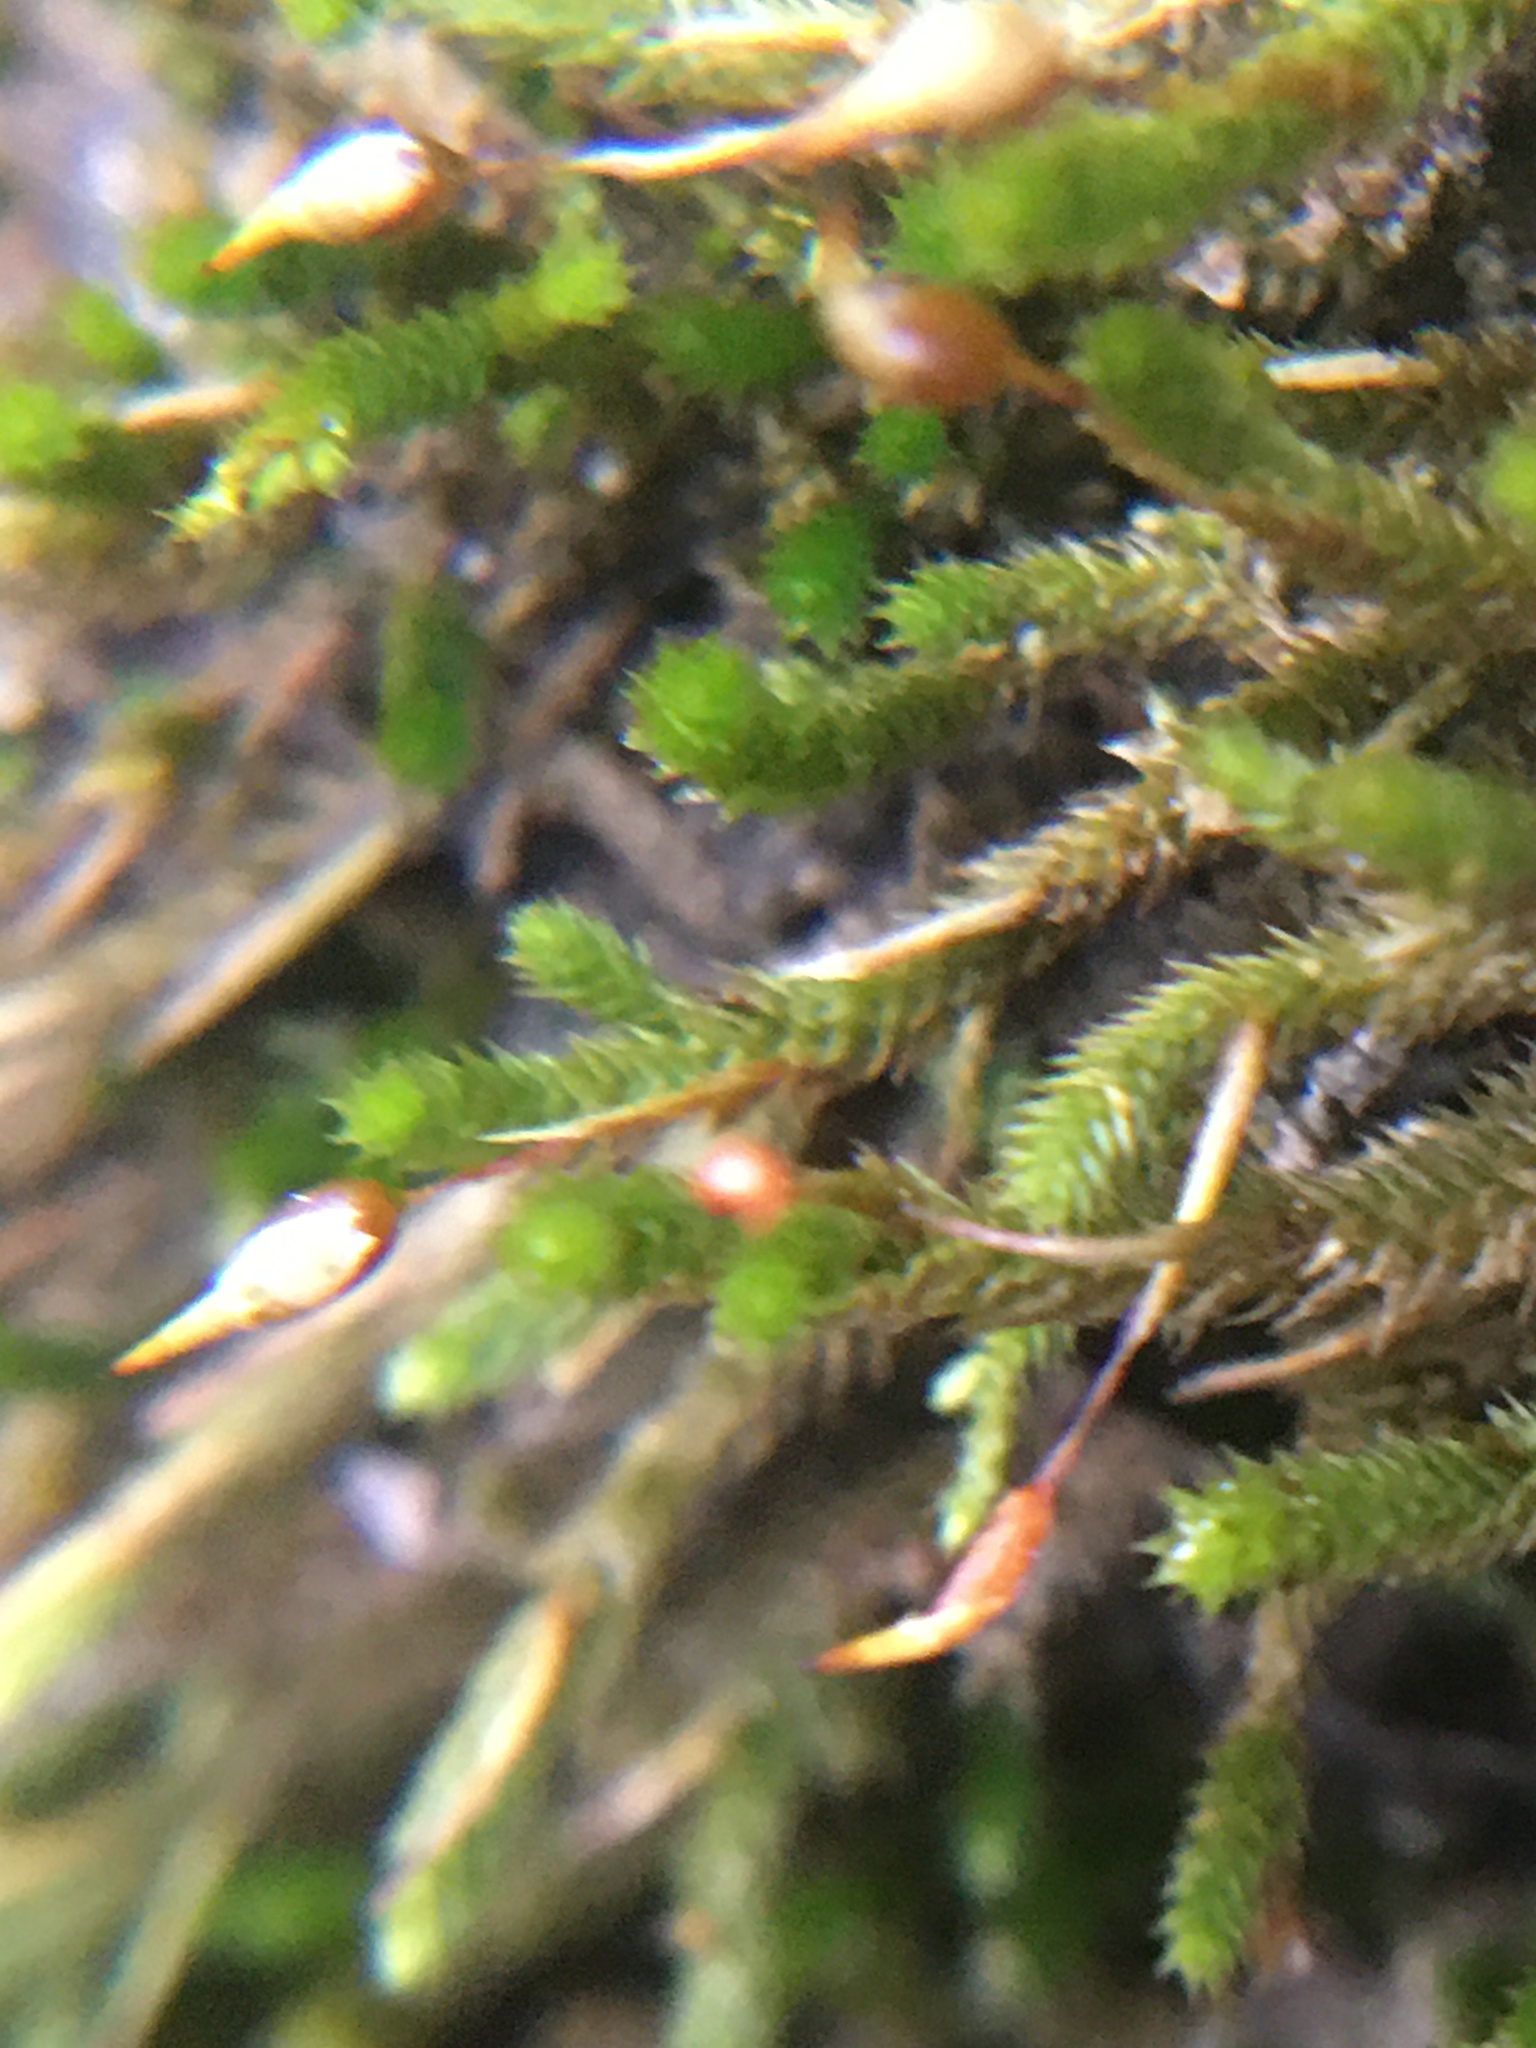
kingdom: Plantae
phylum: Bryophyta
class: Bryopsida
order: Hypnales
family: Leucodontaceae
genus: Leucodon
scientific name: Leucodon julaceus
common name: Smooth hook moss
